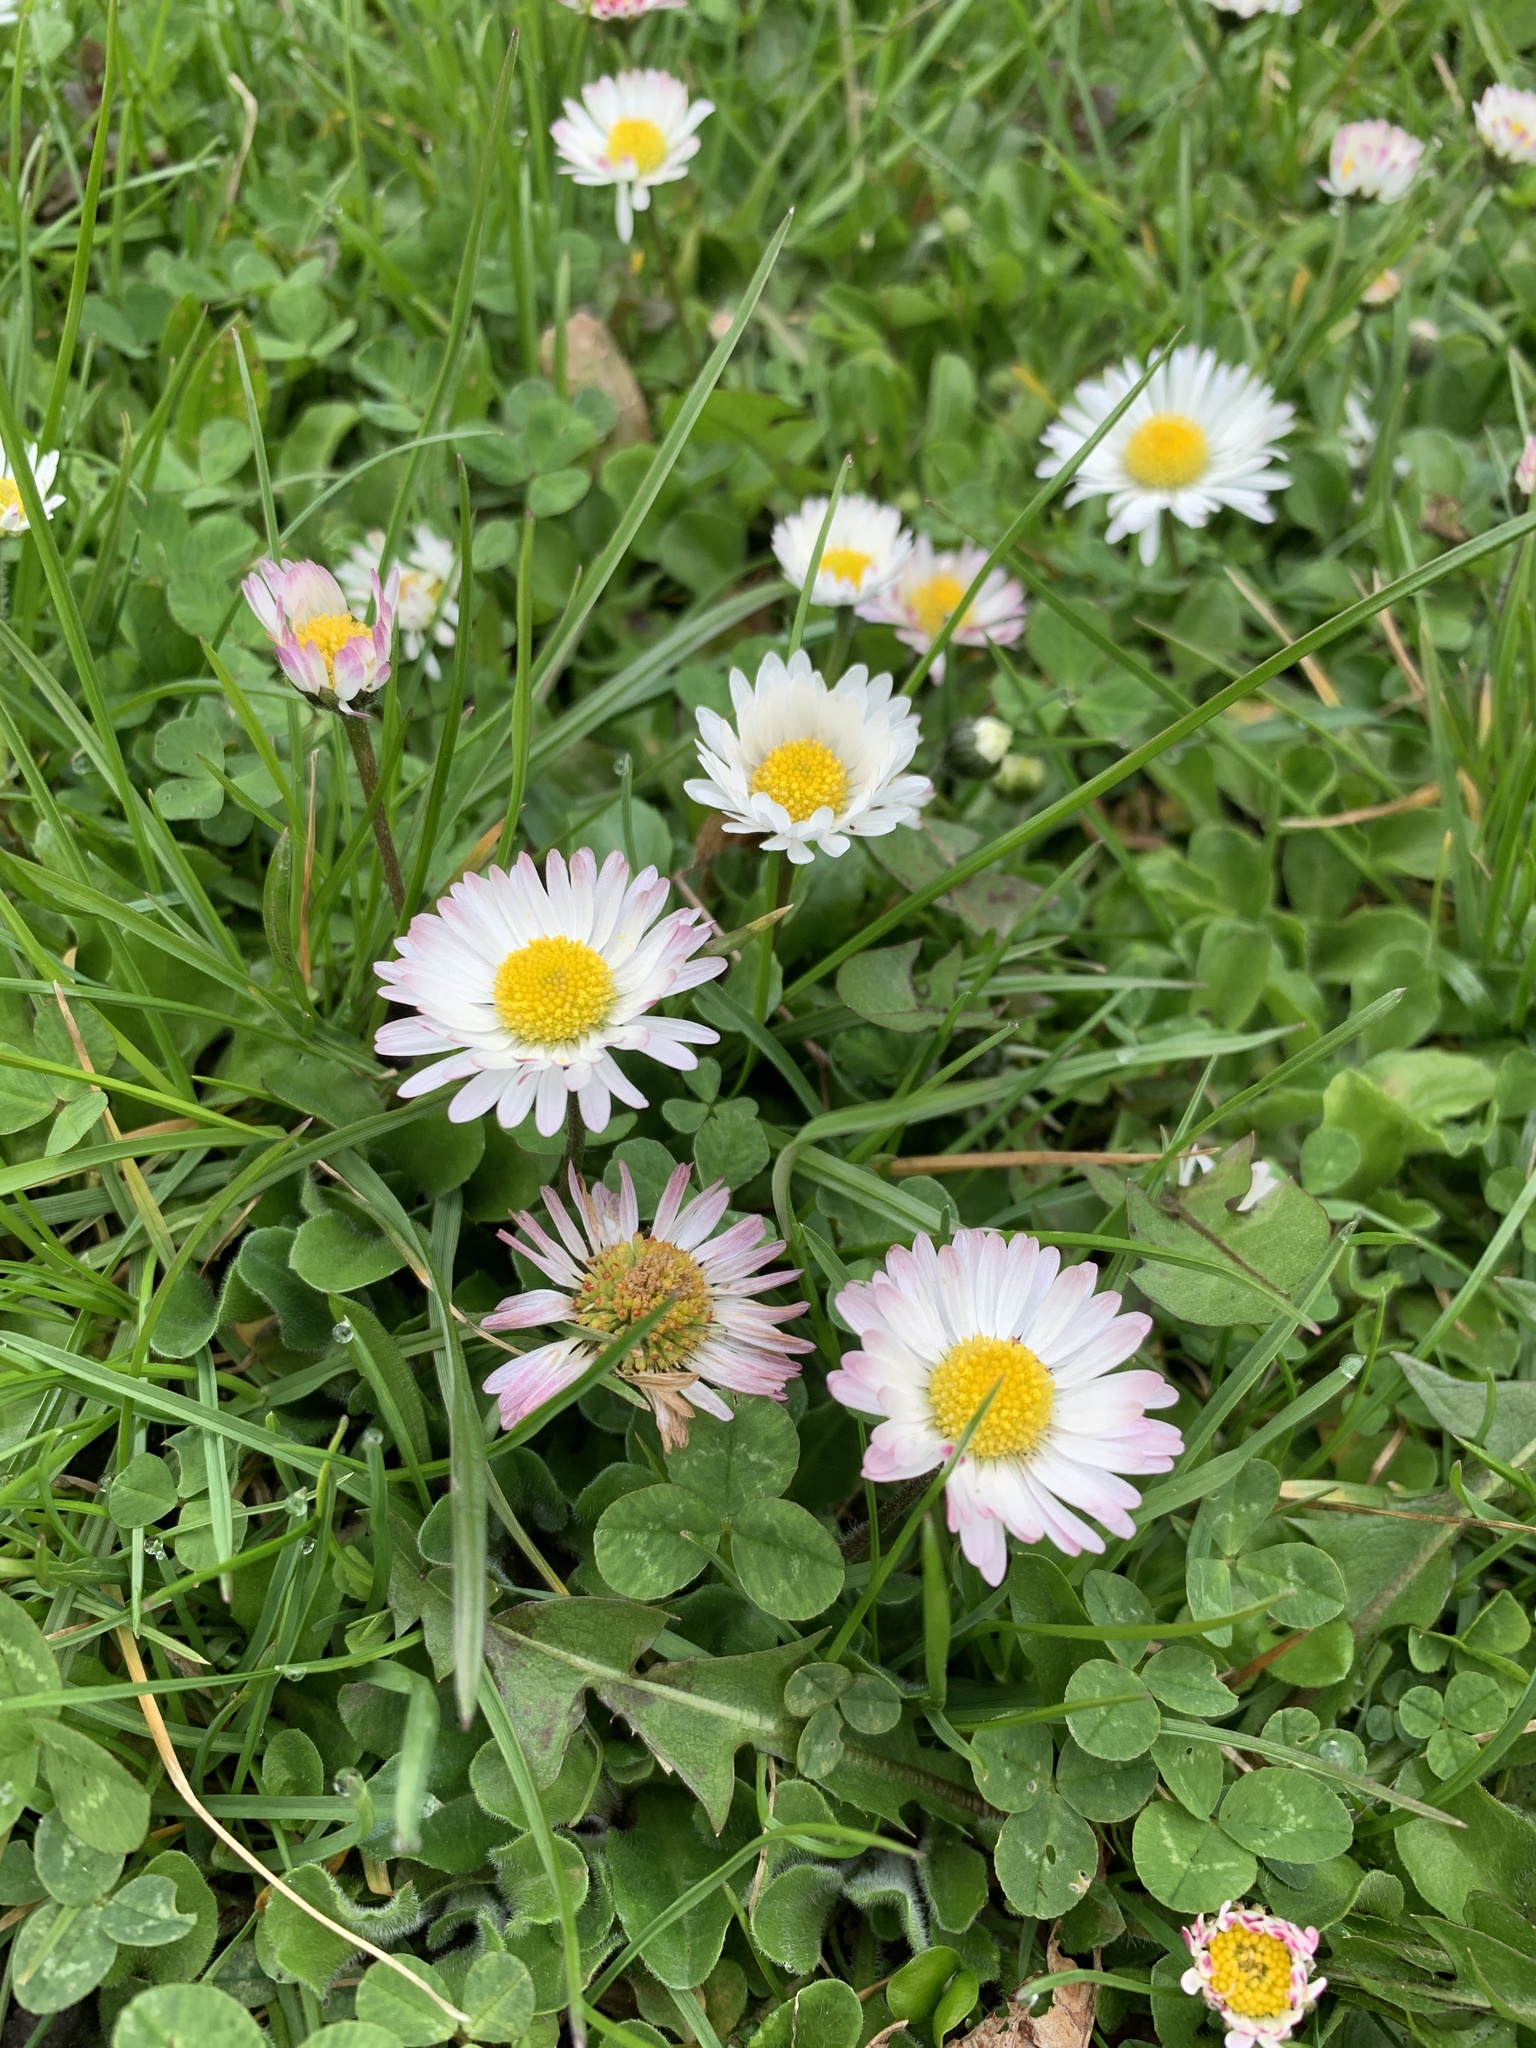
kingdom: Plantae
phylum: Tracheophyta
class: Magnoliopsida
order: Asterales
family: Asteraceae
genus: Bellis
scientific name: Bellis perennis
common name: Lawndaisy
